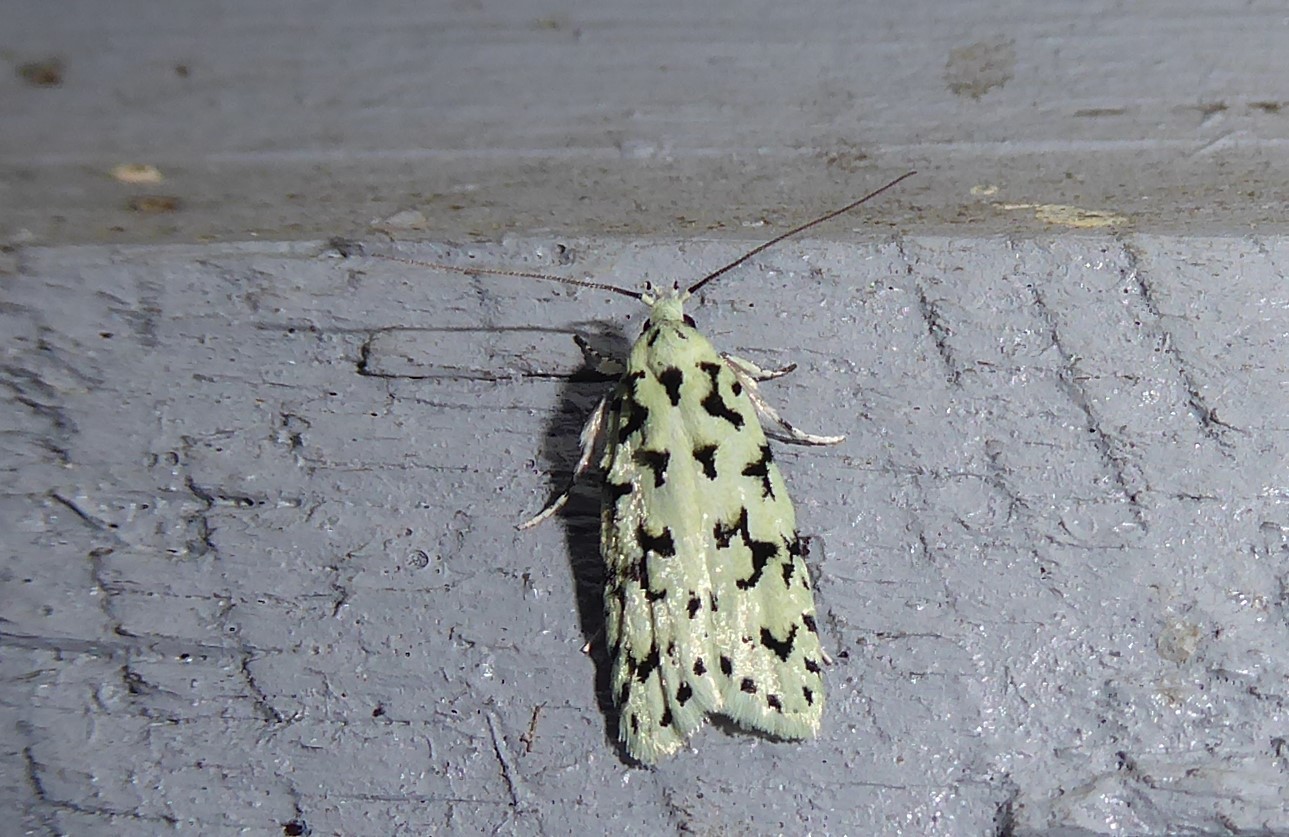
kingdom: Animalia
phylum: Arthropoda
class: Insecta
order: Lepidoptera
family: Oecophoridae
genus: Izatha
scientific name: Izatha huttoni
